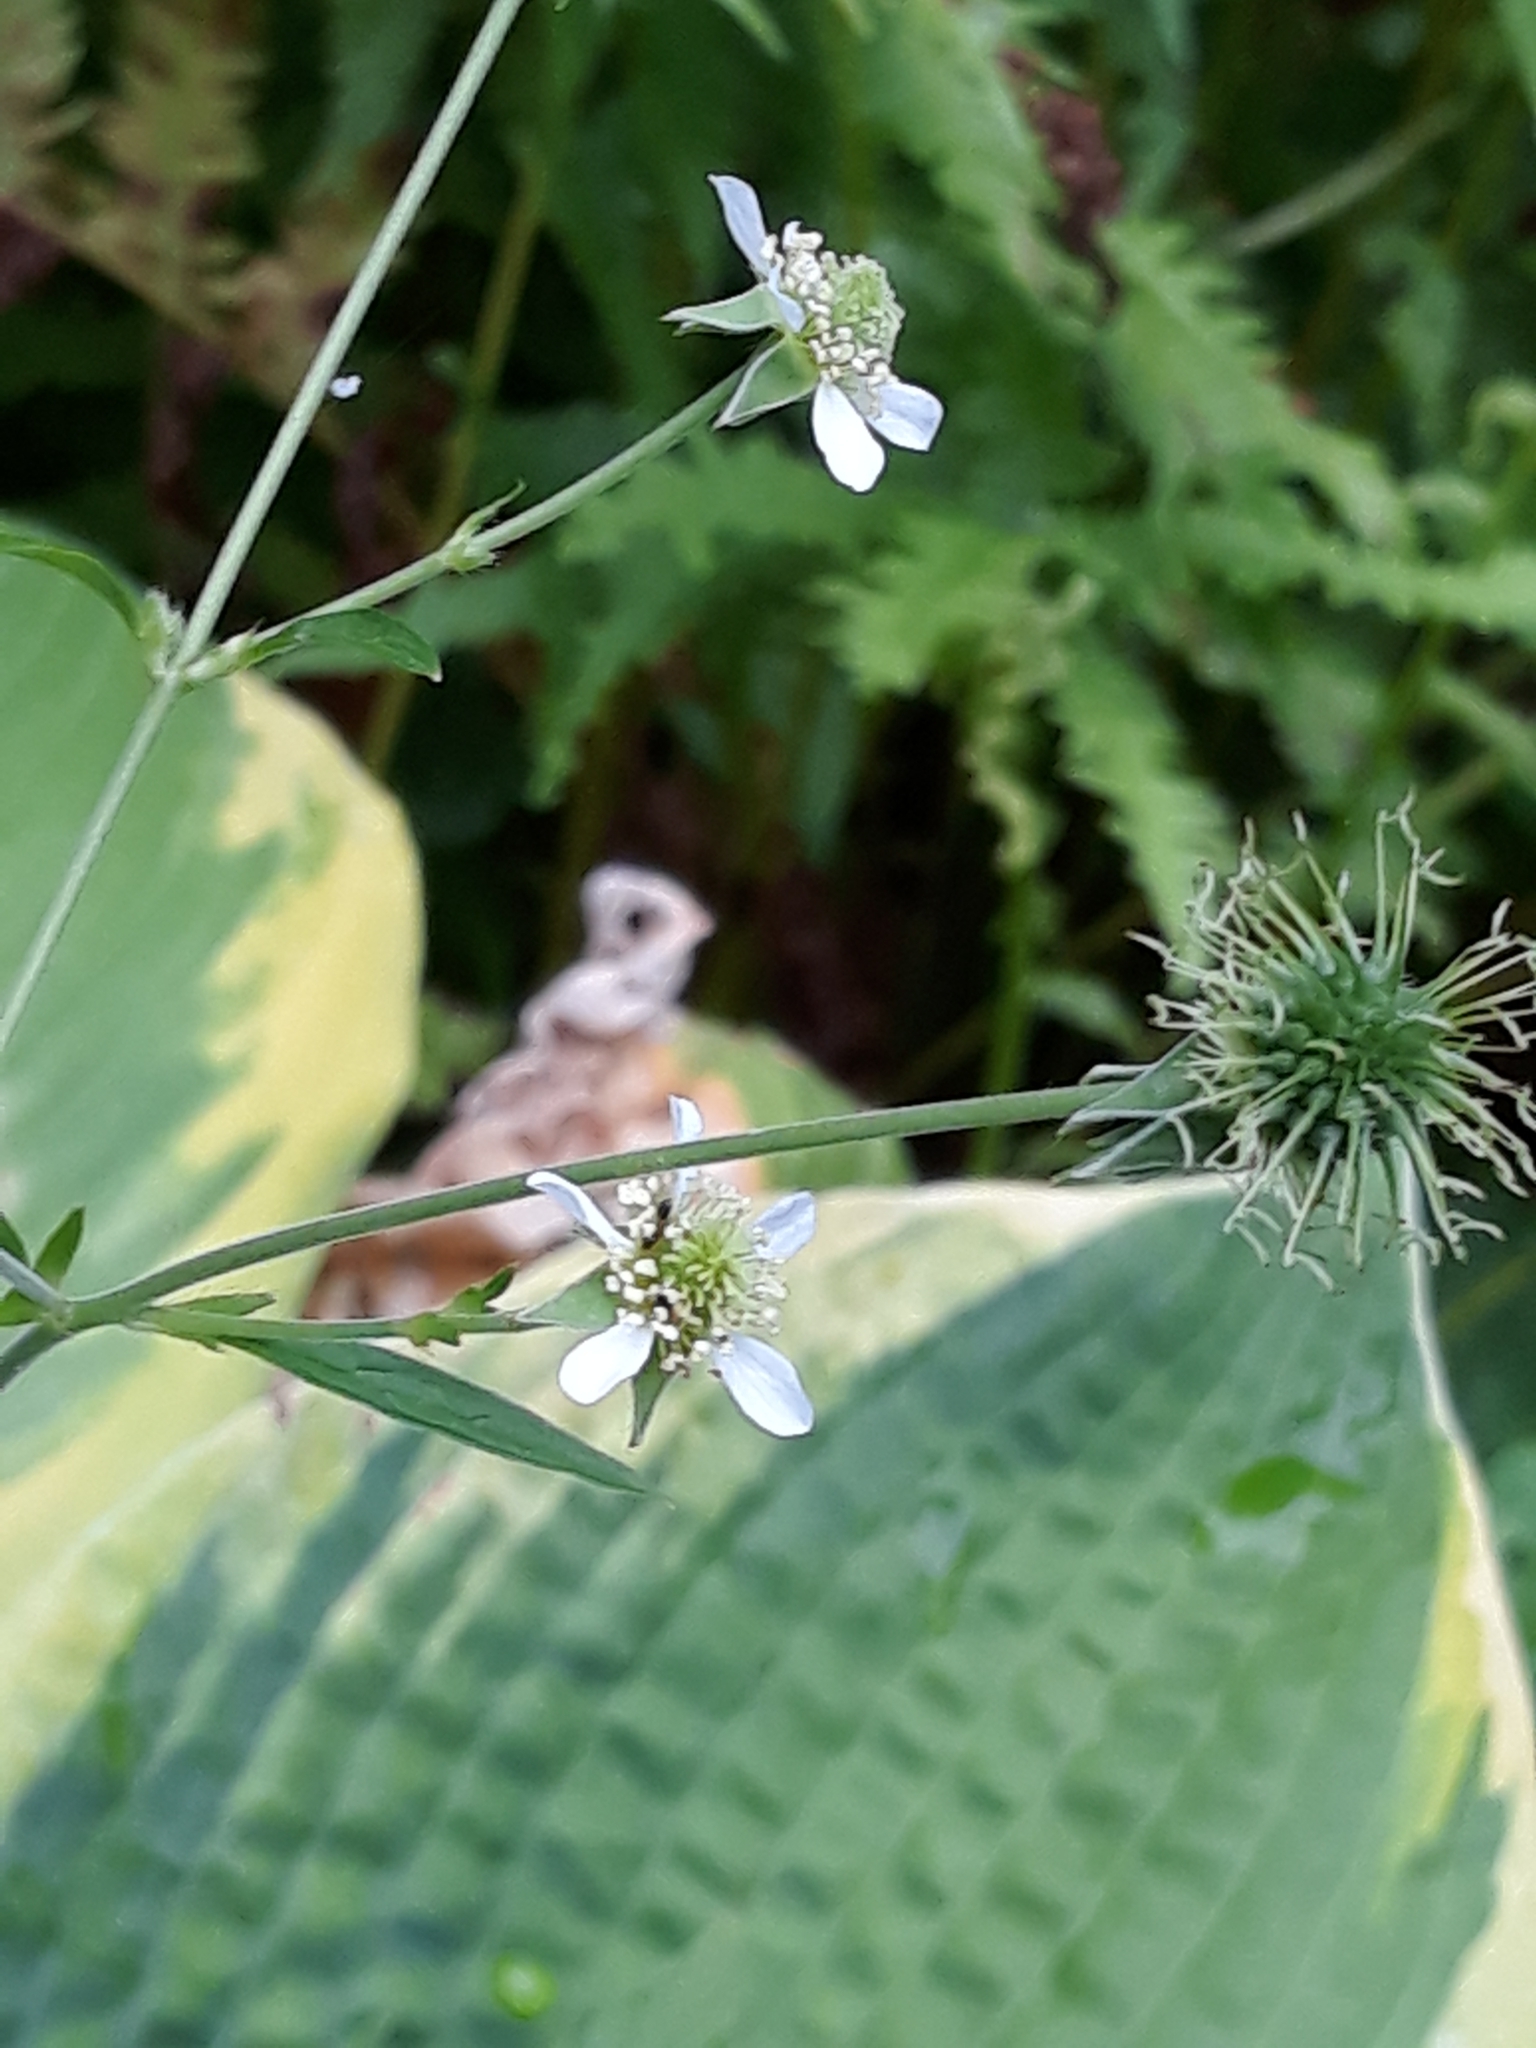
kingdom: Plantae
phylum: Tracheophyta
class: Magnoliopsida
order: Rosales
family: Rosaceae
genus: Geum
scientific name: Geum canadense
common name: White avens
